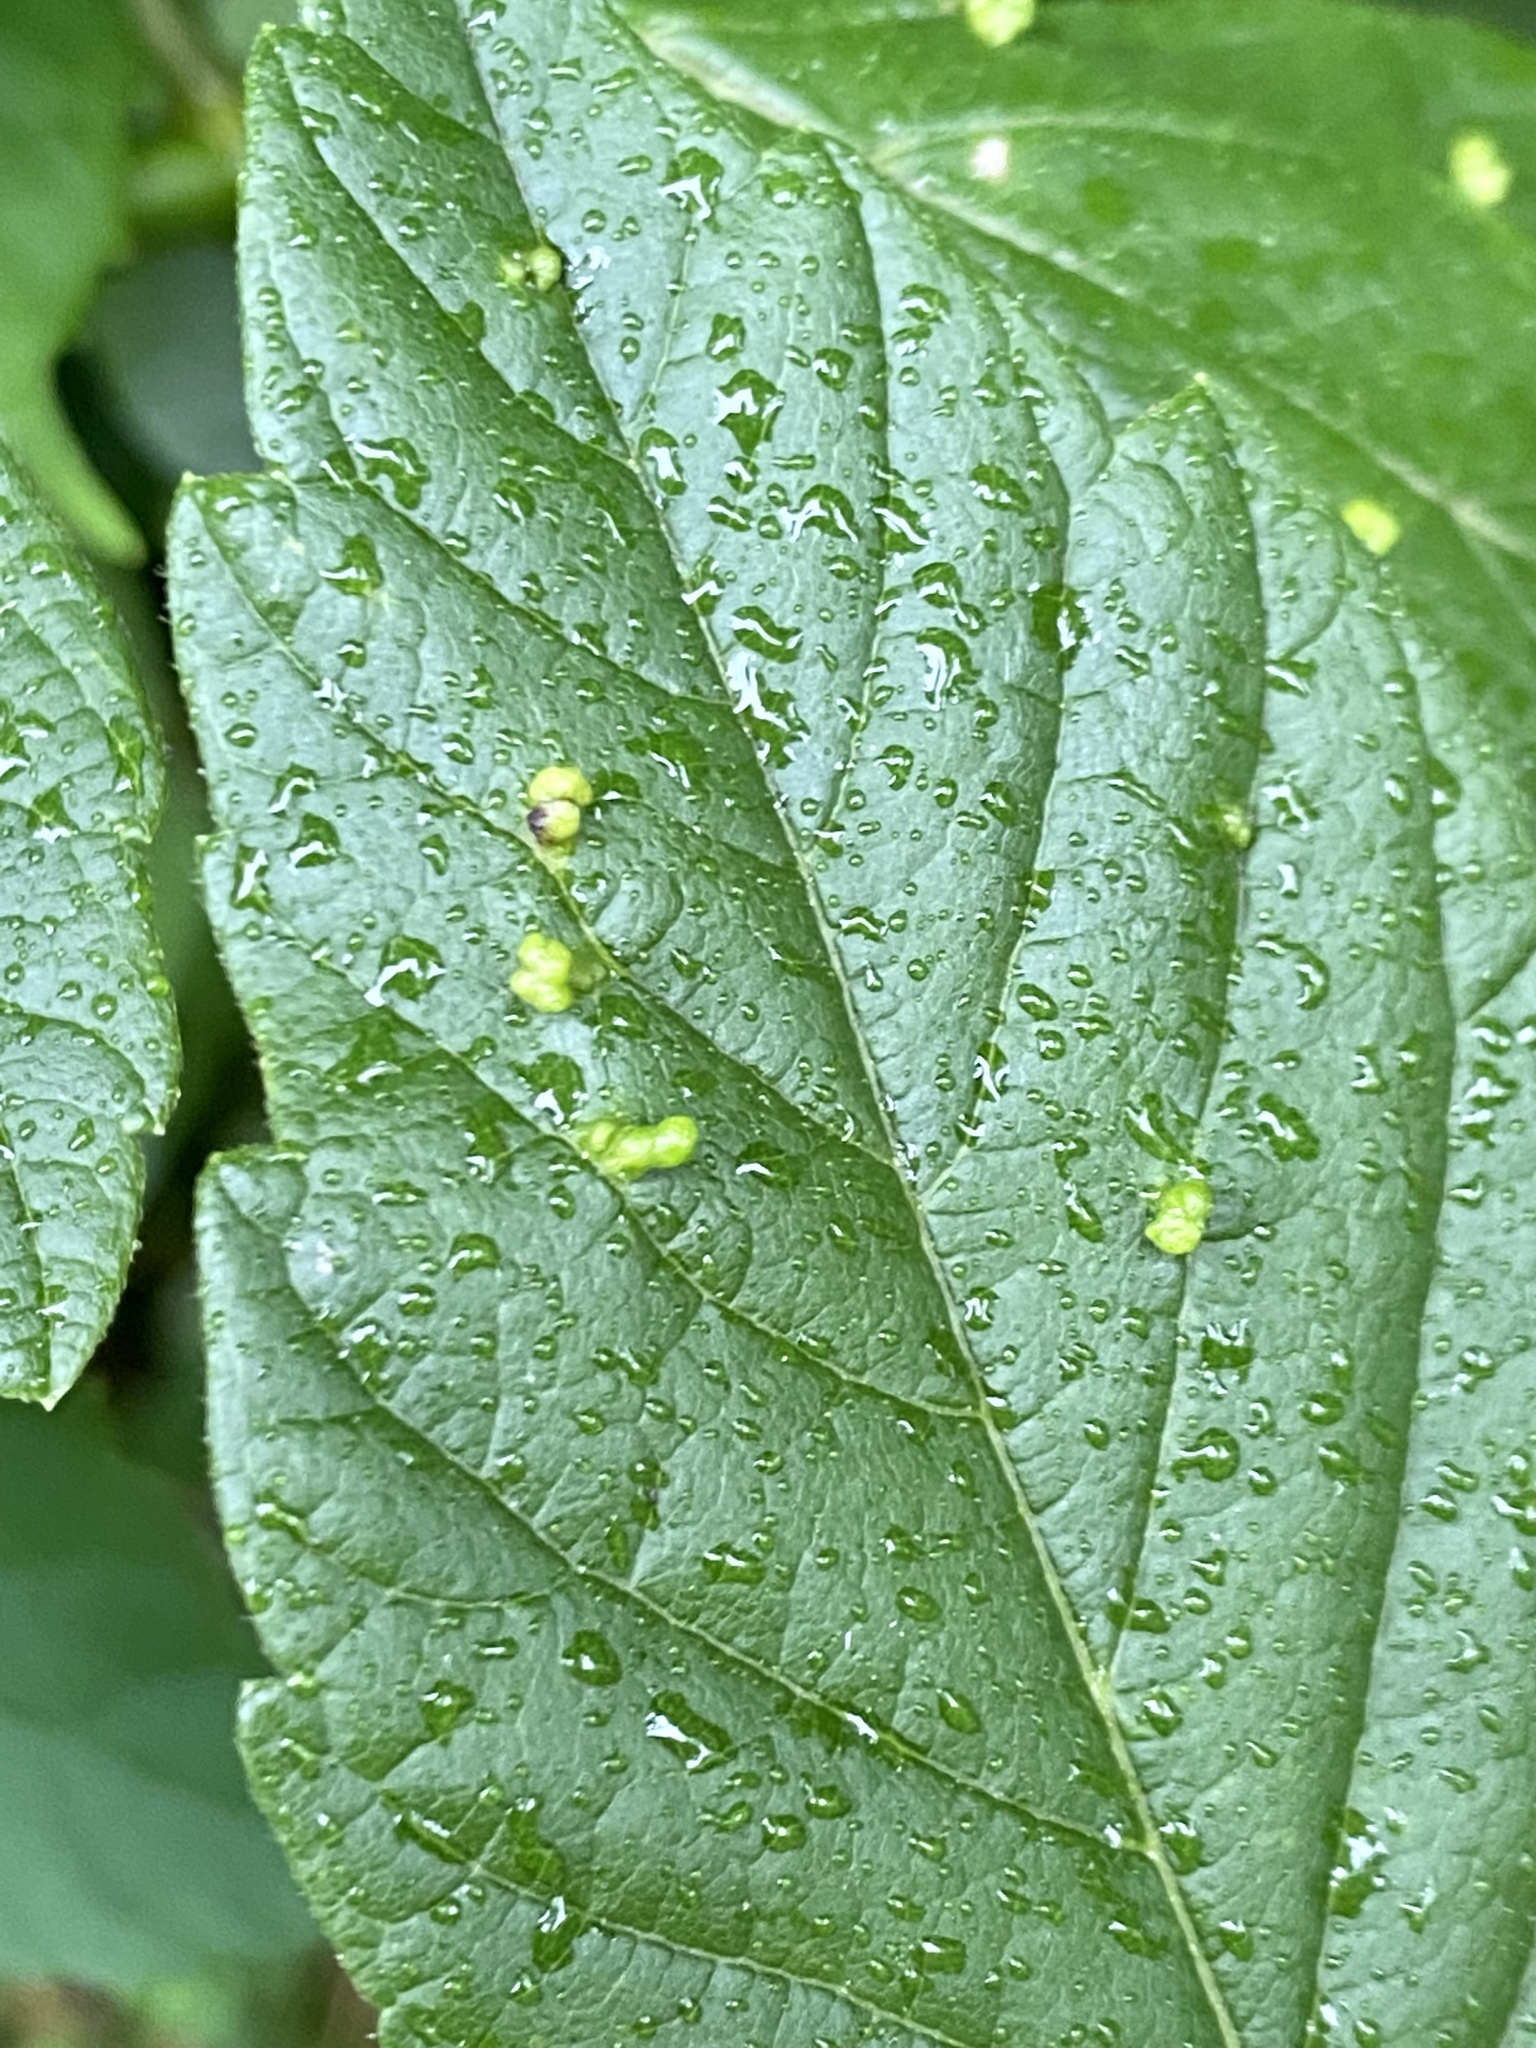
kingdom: Animalia
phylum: Arthropoda
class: Arachnida
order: Trombidiformes
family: Eriophyidae
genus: Aceria
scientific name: Aceria
